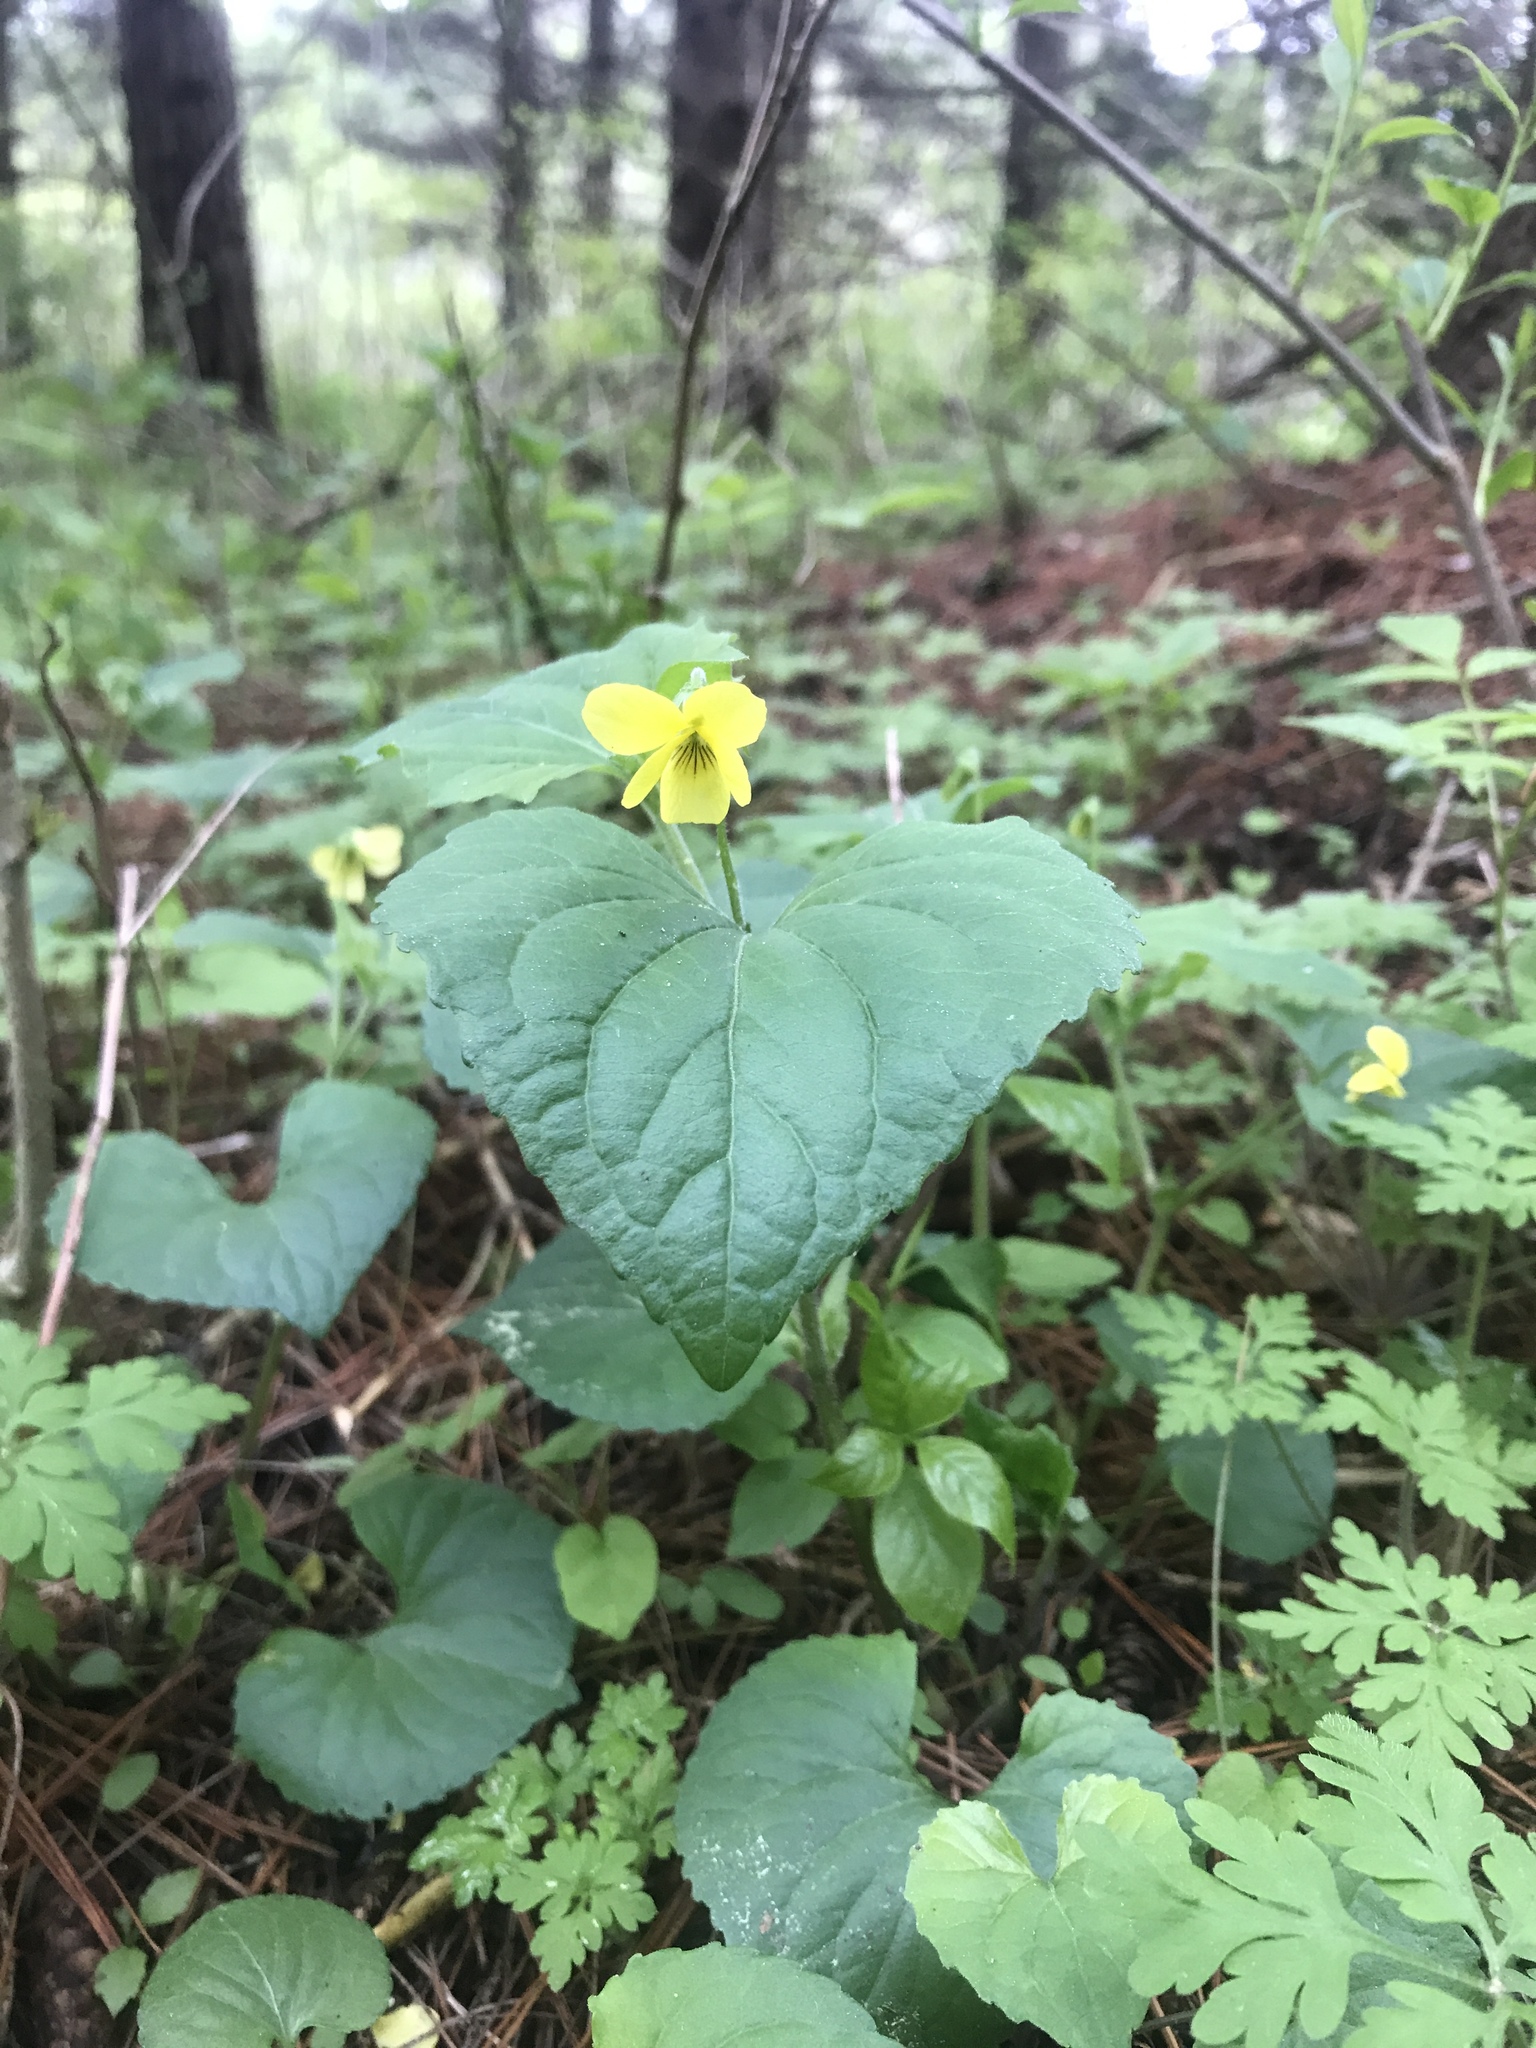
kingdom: Plantae
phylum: Tracheophyta
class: Magnoliopsida
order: Malpighiales
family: Violaceae
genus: Viola
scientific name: Viola eriocarpa
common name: Smooth yellow violet
